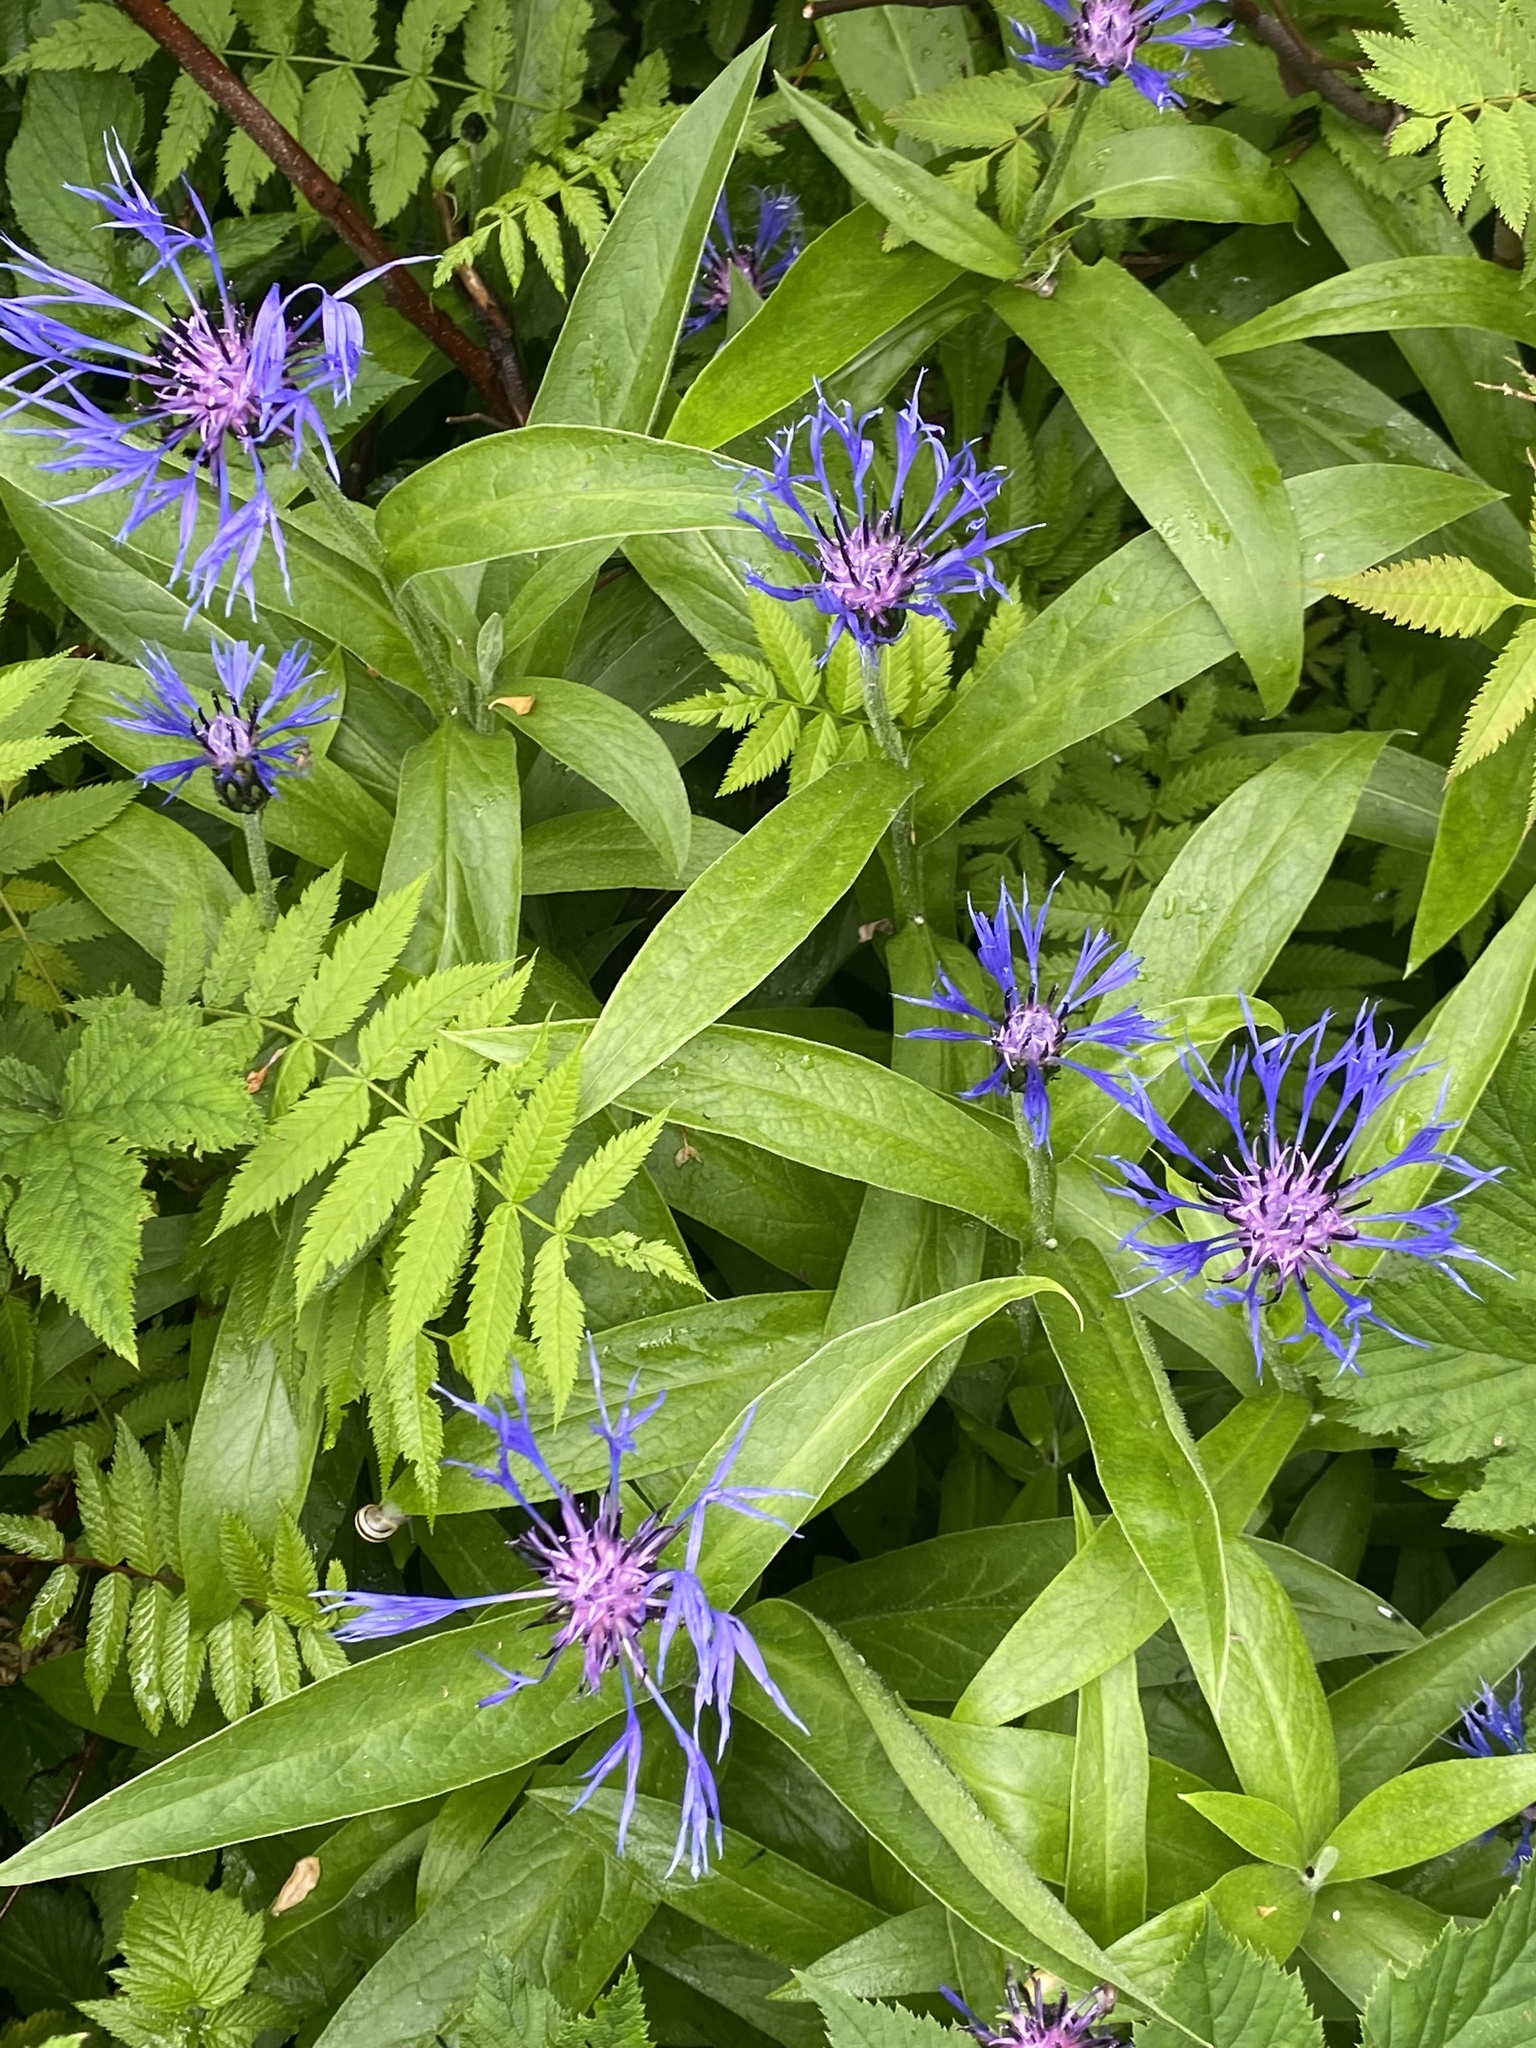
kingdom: Plantae
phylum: Tracheophyta
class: Magnoliopsida
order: Asterales
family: Asteraceae
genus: Centaurea
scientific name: Centaurea montana
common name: Perennial cornflower
